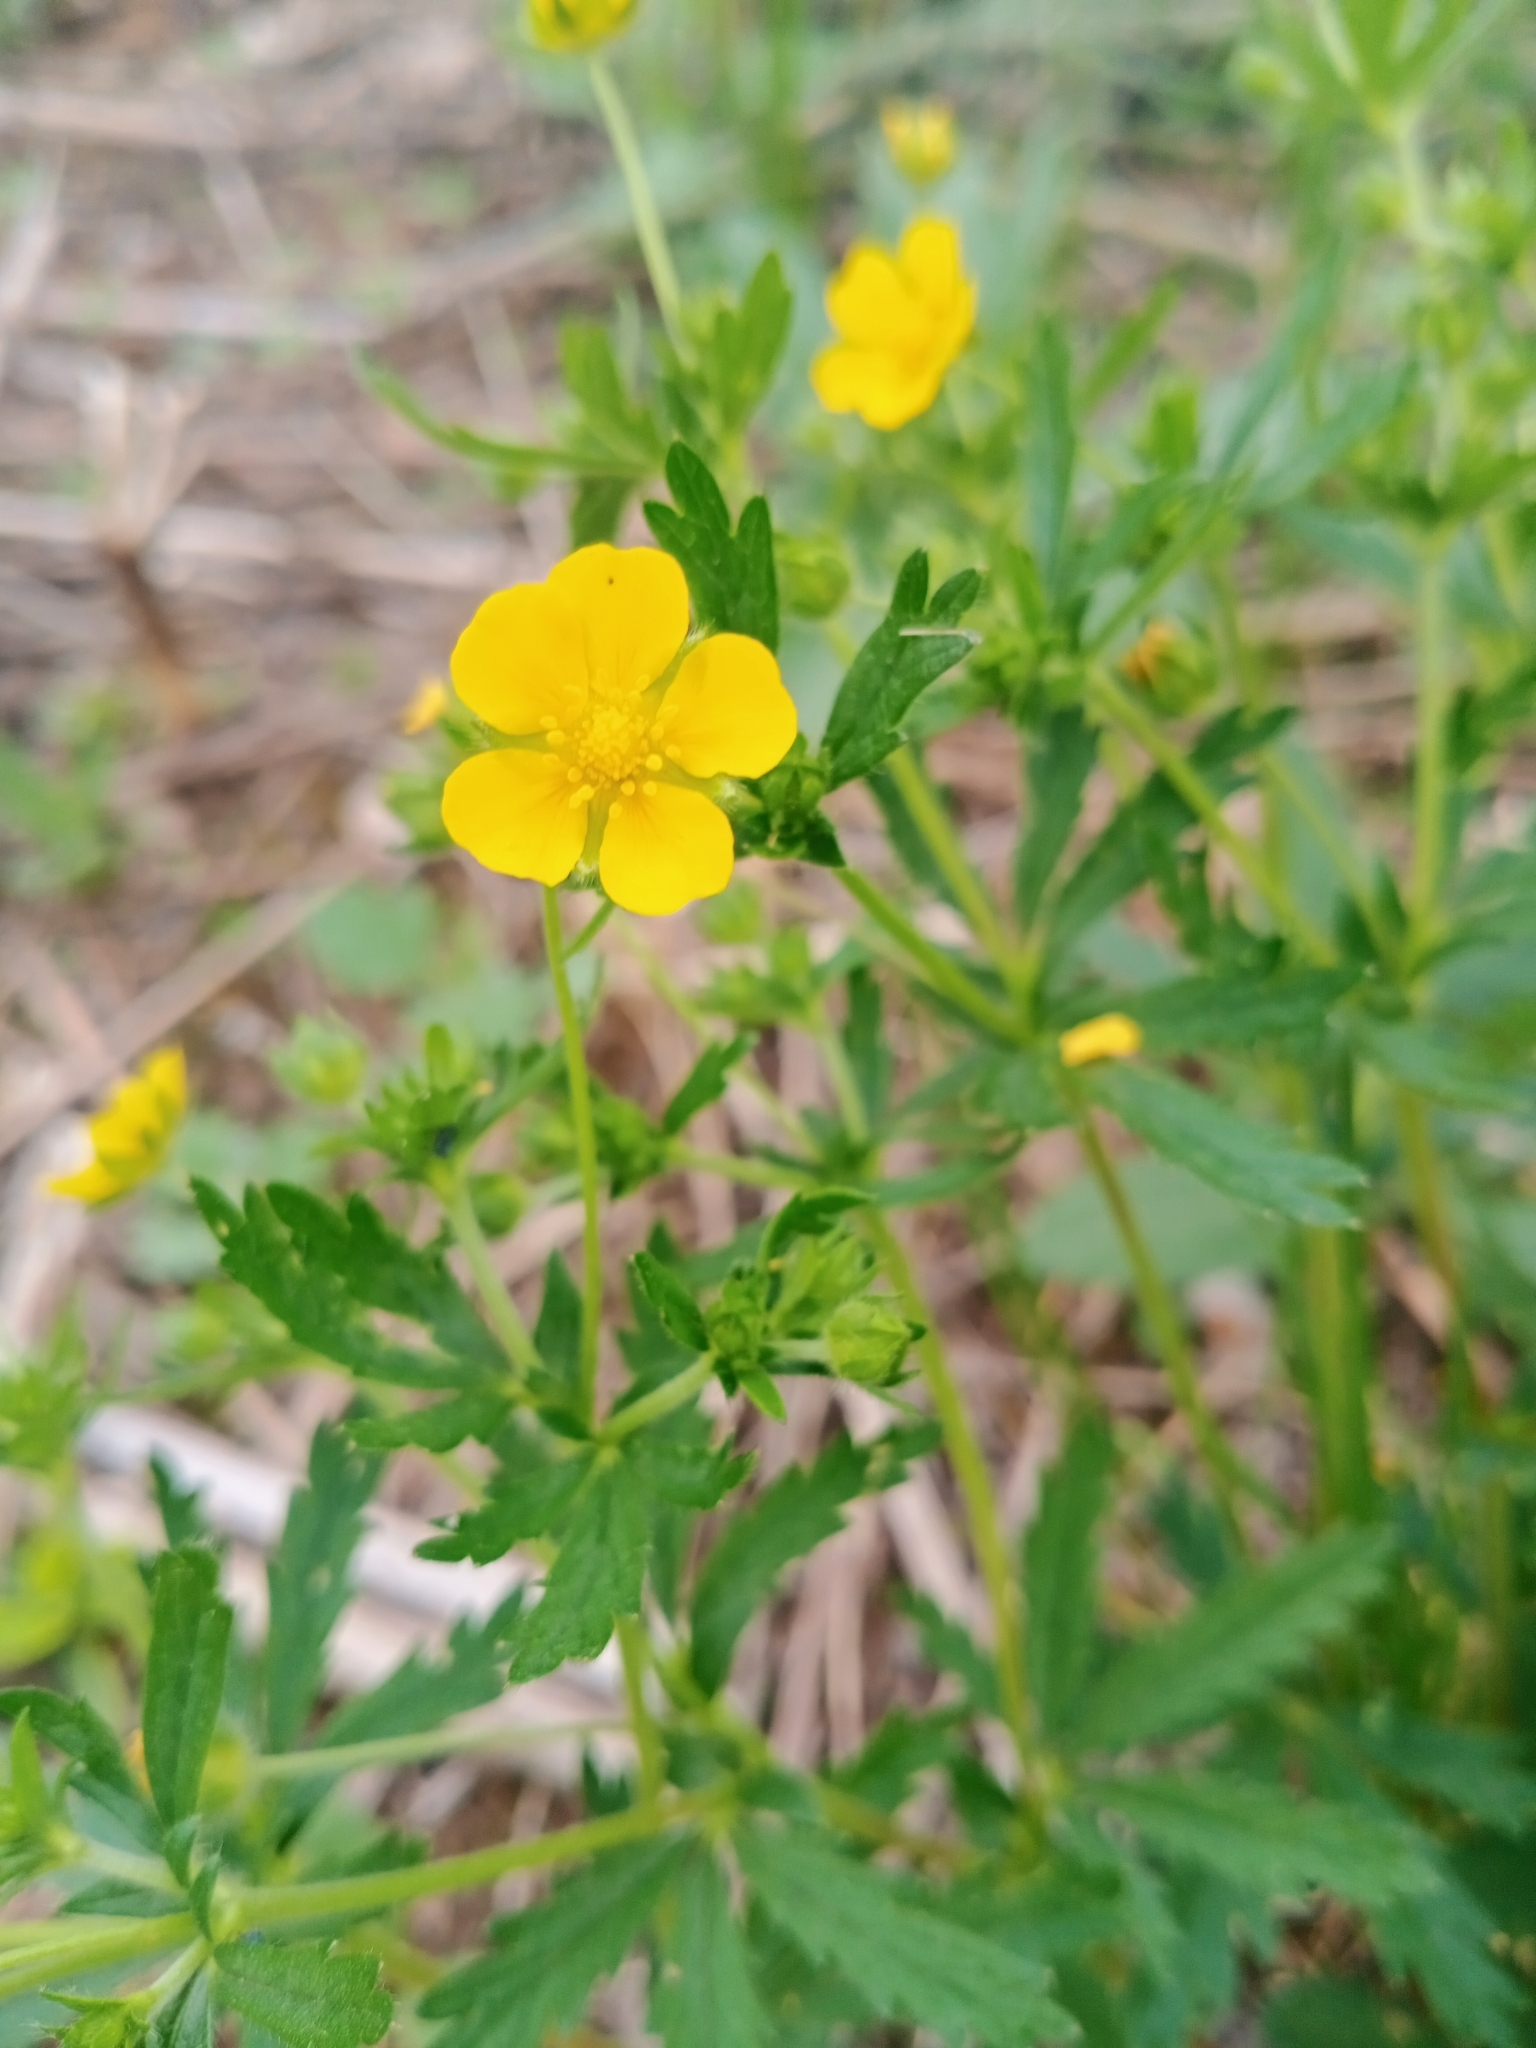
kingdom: Plantae
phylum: Tracheophyta
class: Magnoliopsida
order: Rosales
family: Rosaceae
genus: Potentilla
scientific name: Potentilla thuringiaca
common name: European cinquefoil
